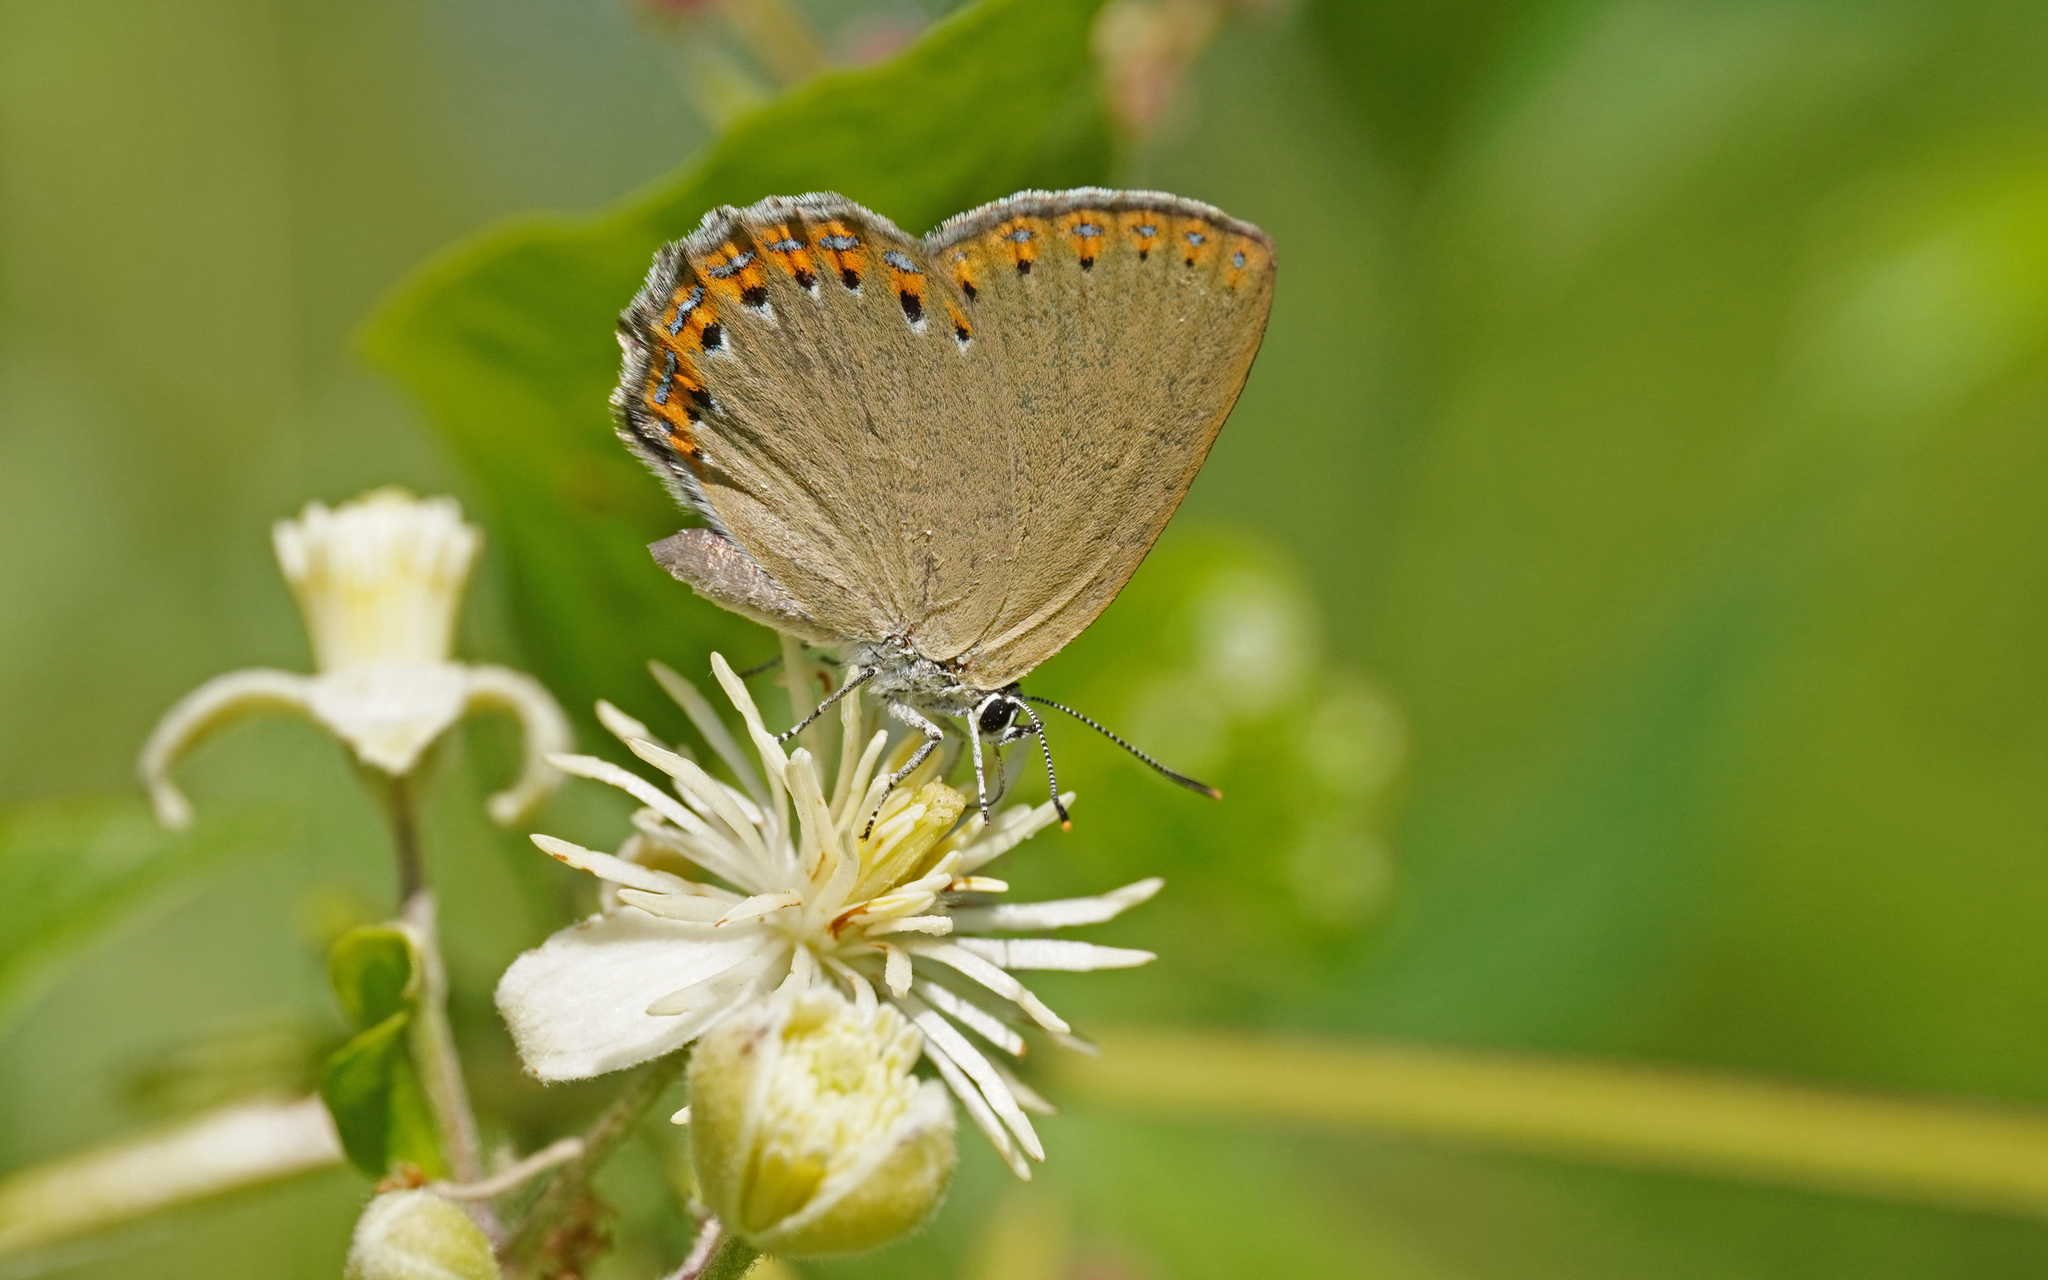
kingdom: Animalia
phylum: Arthropoda
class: Insecta
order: Lepidoptera
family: Lycaenidae
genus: Laeosopis
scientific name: Laeosopis roboris
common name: Spanish purple hairstreak
